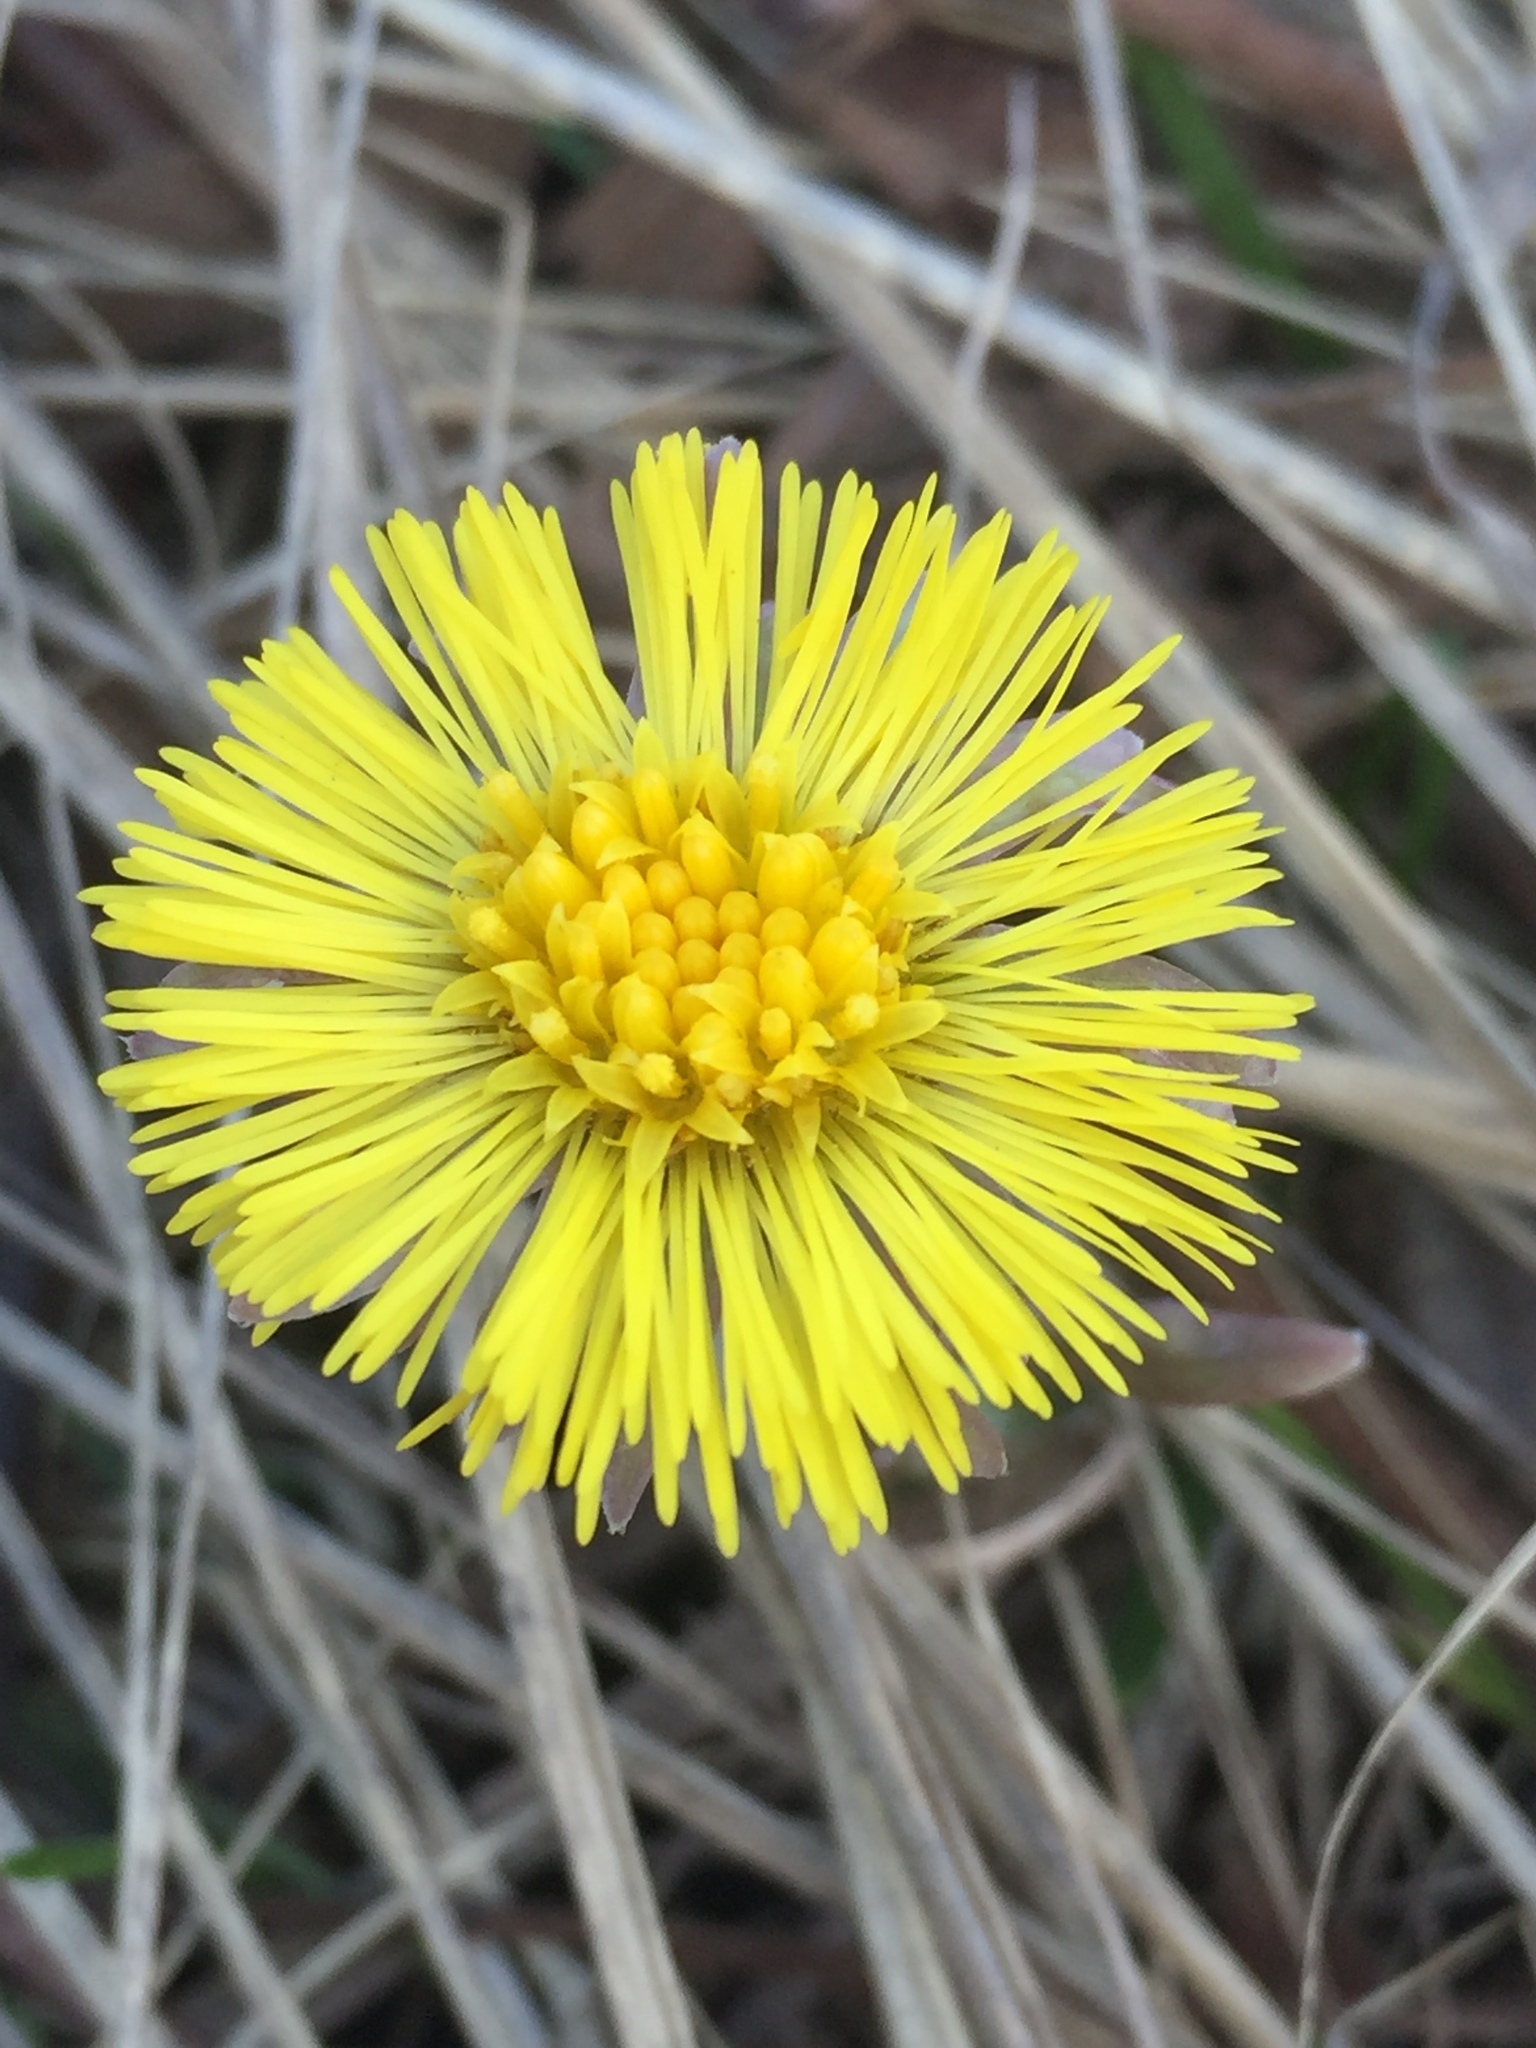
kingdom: Plantae
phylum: Tracheophyta
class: Magnoliopsida
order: Asterales
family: Asteraceae
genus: Tussilago
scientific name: Tussilago farfara
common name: Coltsfoot
